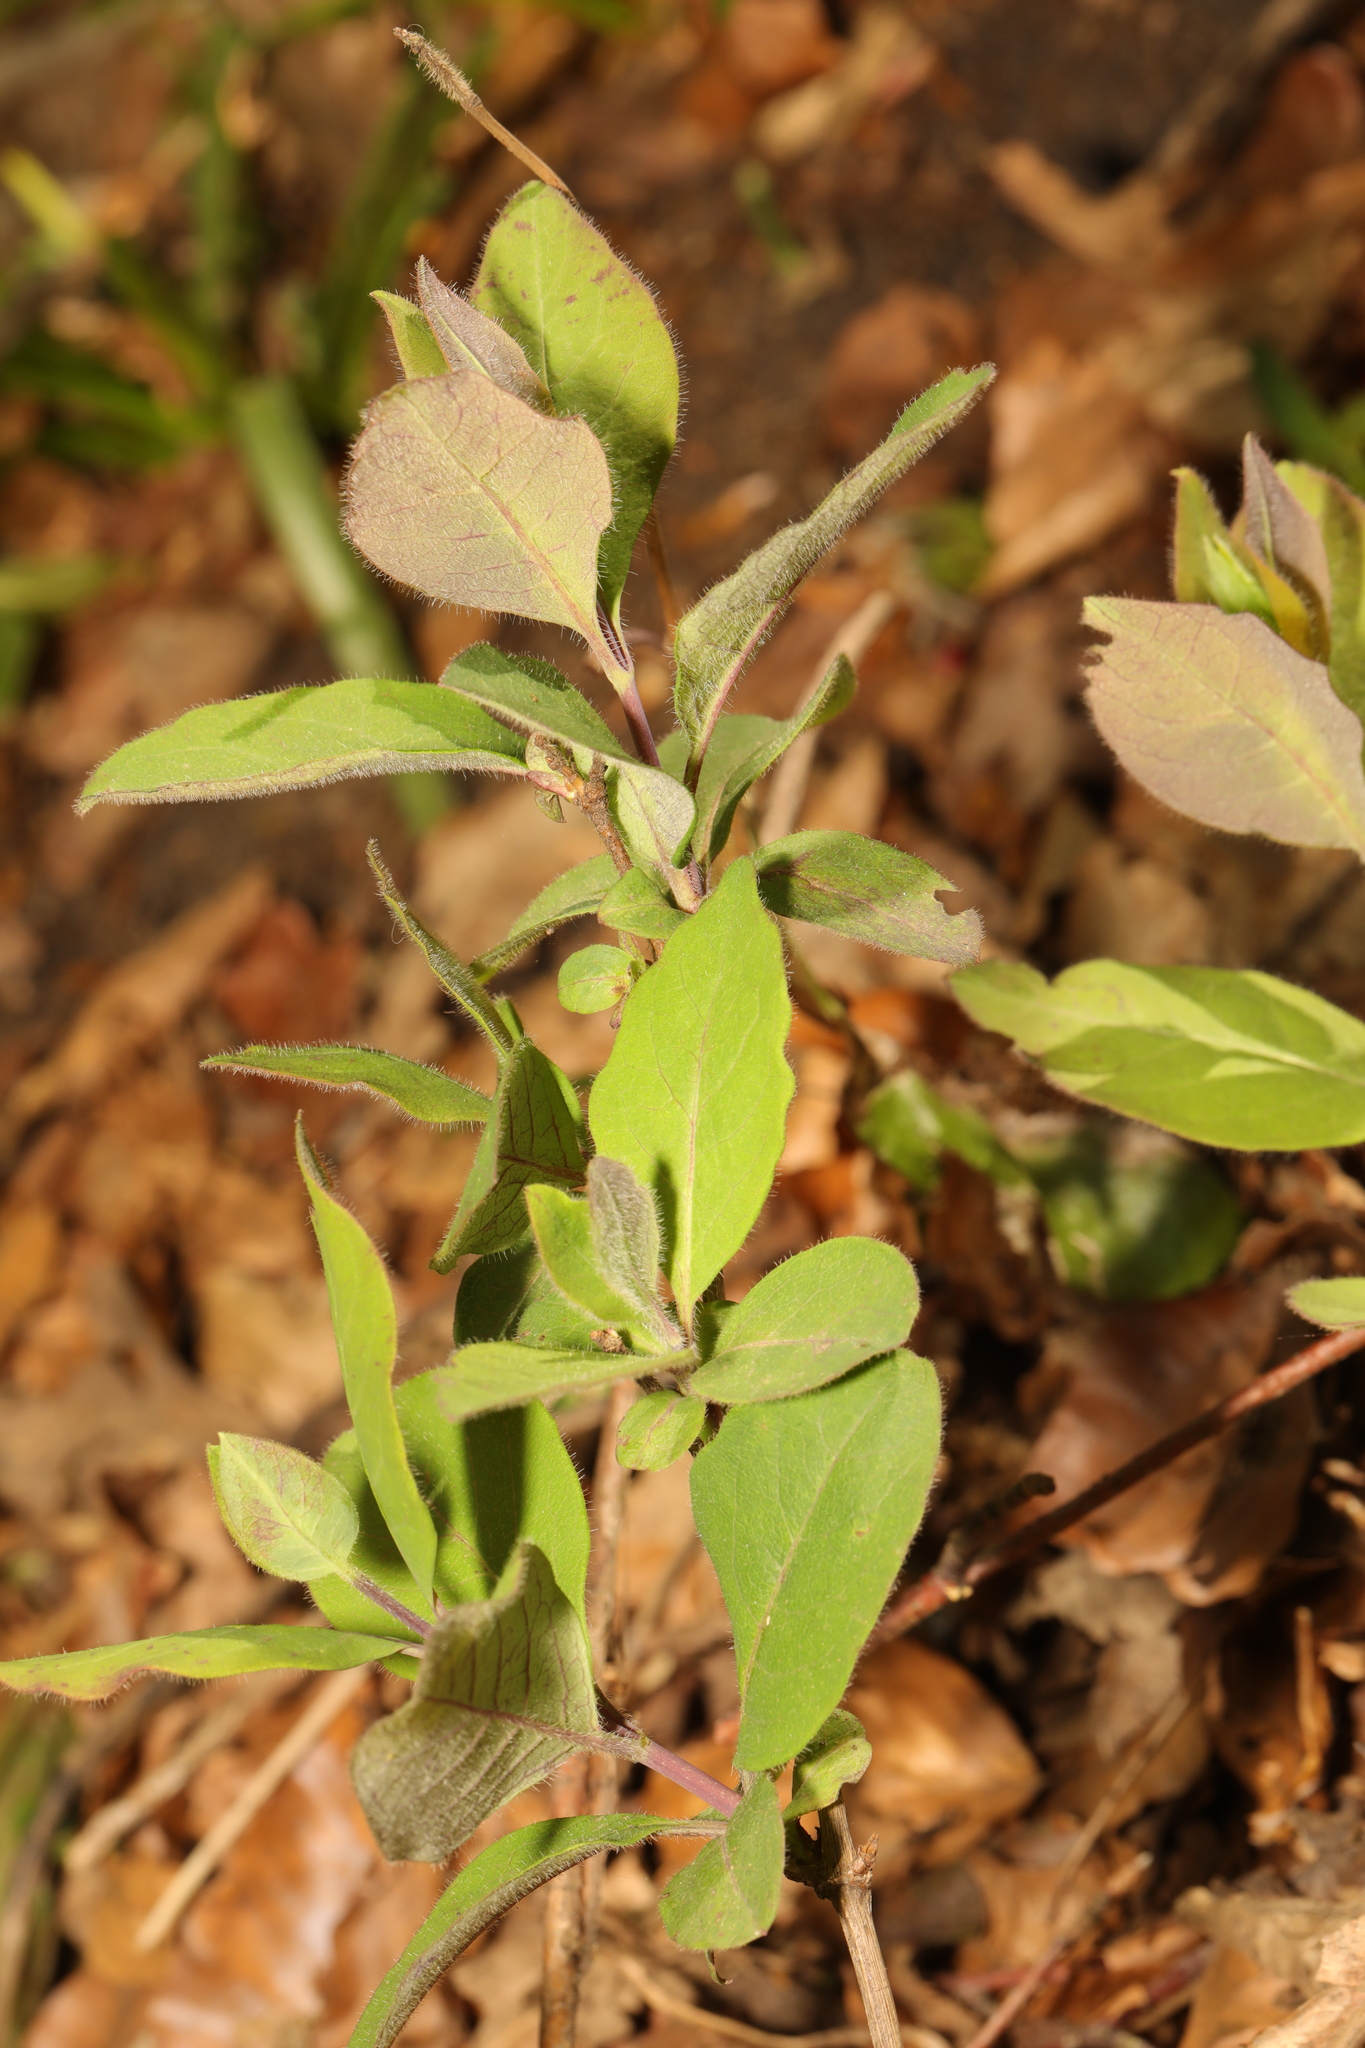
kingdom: Plantae
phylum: Tracheophyta
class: Magnoliopsida
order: Dipsacales
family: Caprifoliaceae
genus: Lonicera
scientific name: Lonicera periclymenum
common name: European honeysuckle
